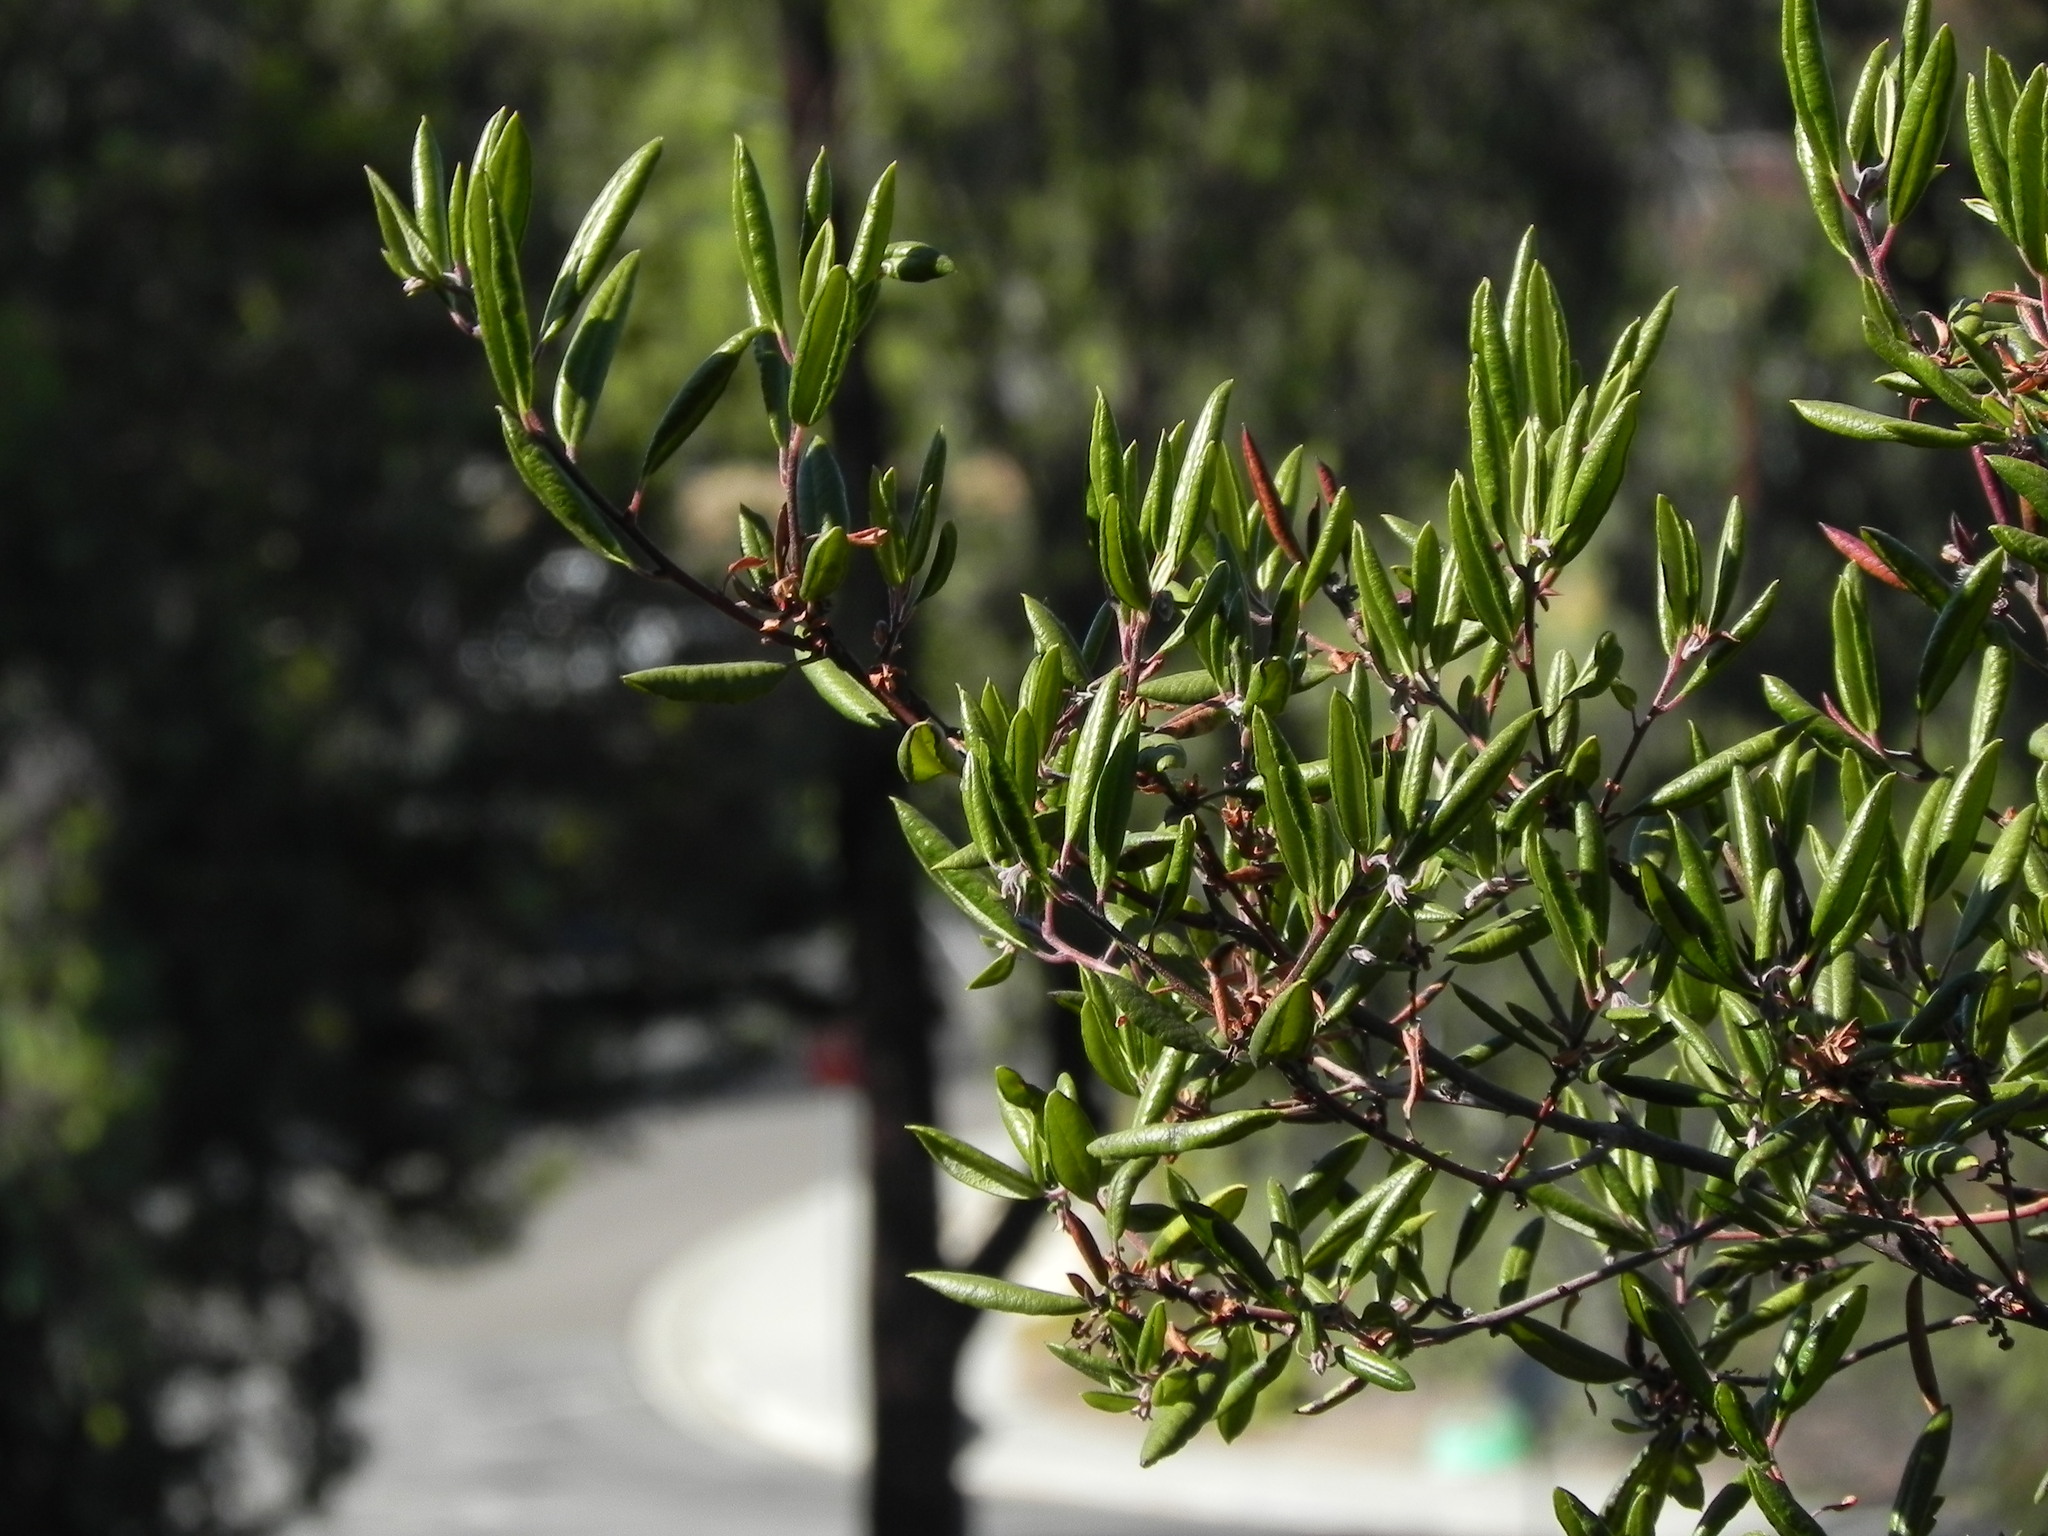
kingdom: Plantae
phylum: Tracheophyta
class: Magnoliopsida
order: Ericales
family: Ericaceae
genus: Arctostaphylos
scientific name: Arctostaphylos bicolor
